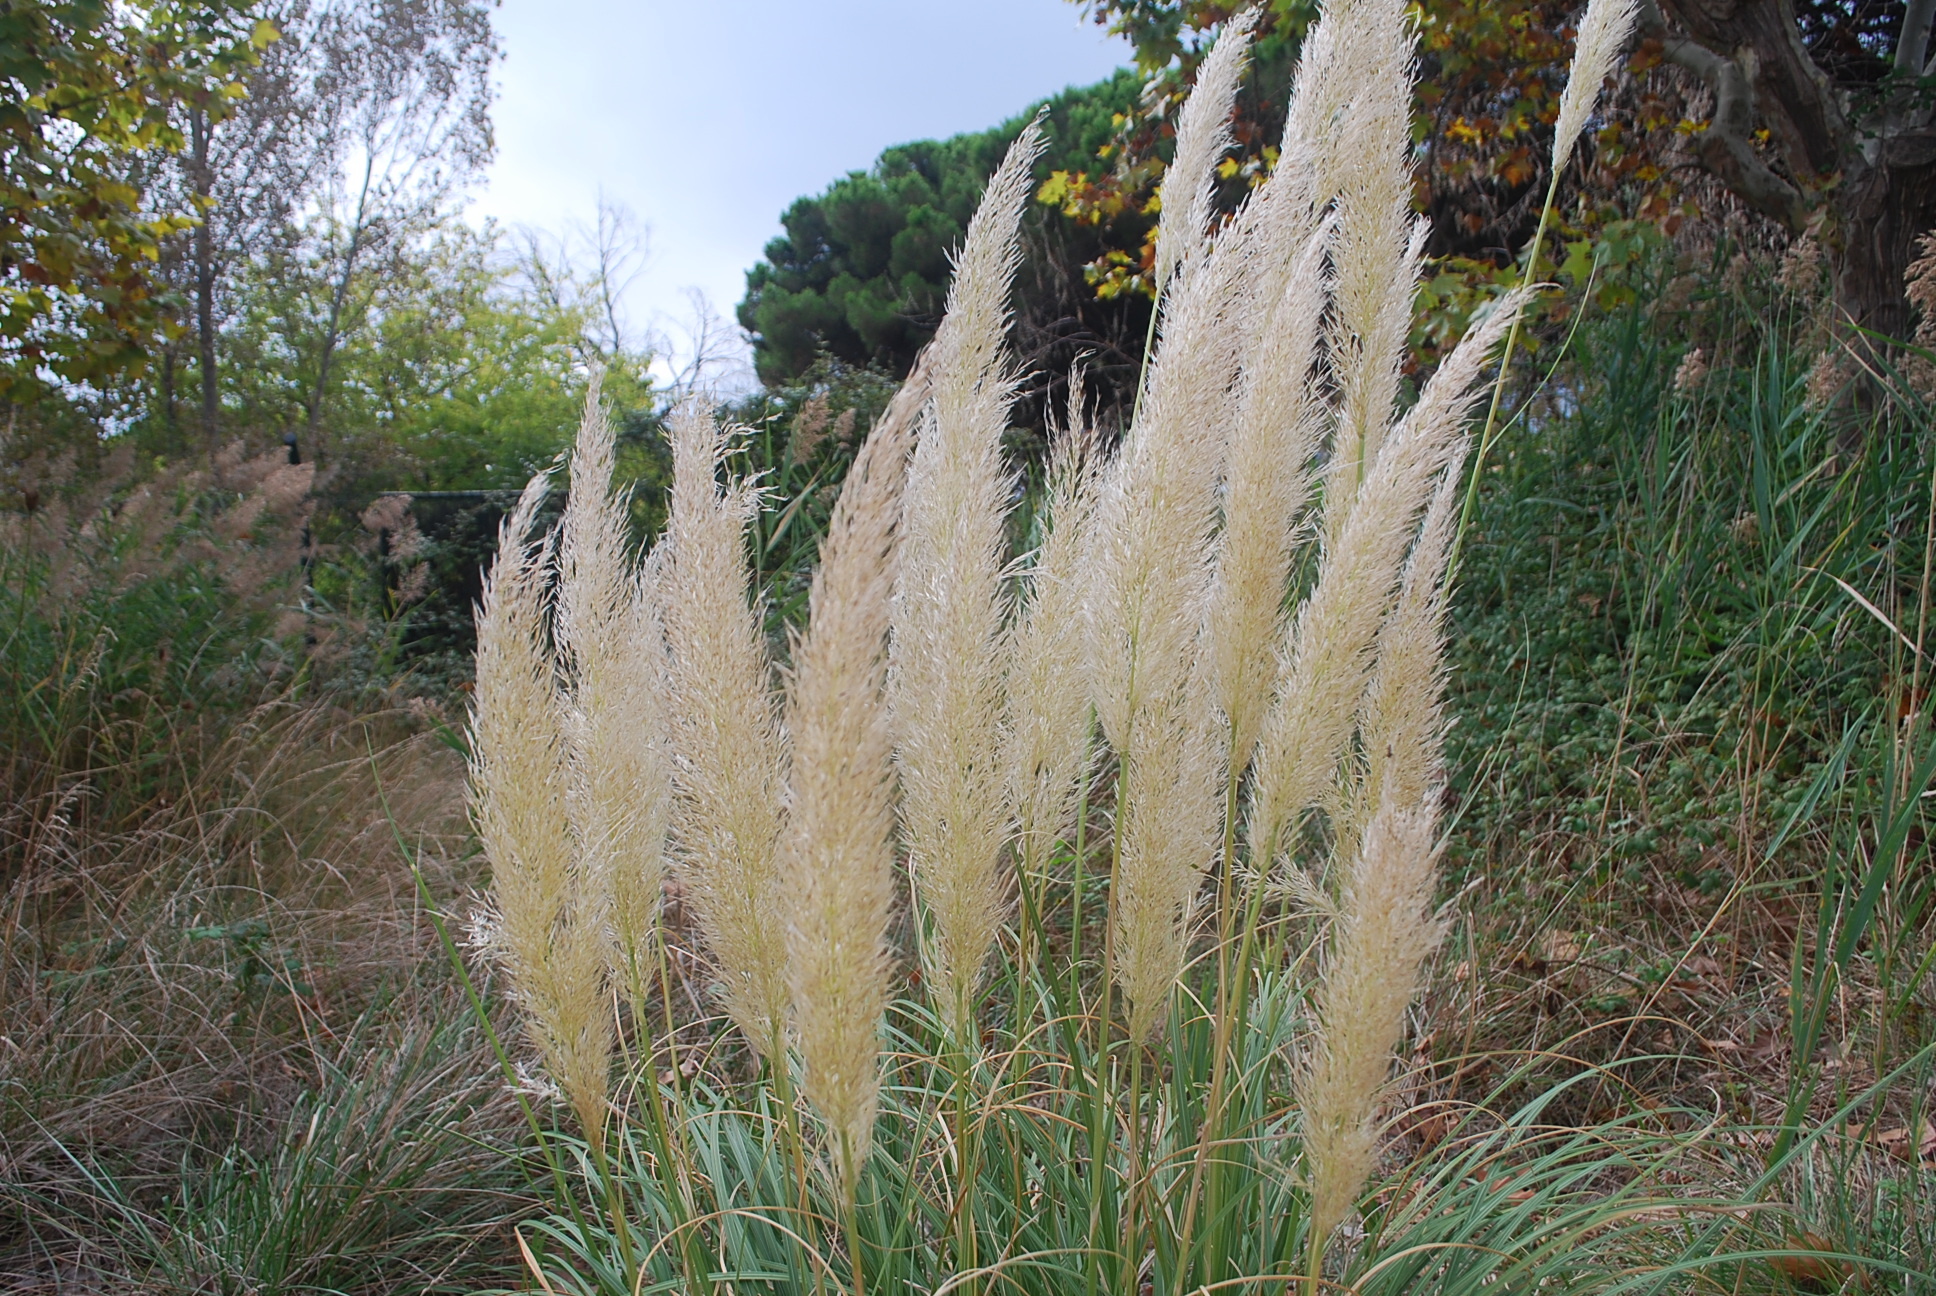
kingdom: Plantae
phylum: Tracheophyta
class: Liliopsida
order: Poales
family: Poaceae
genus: Cortaderia
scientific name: Cortaderia selloana
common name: Uruguayan pampas grass
